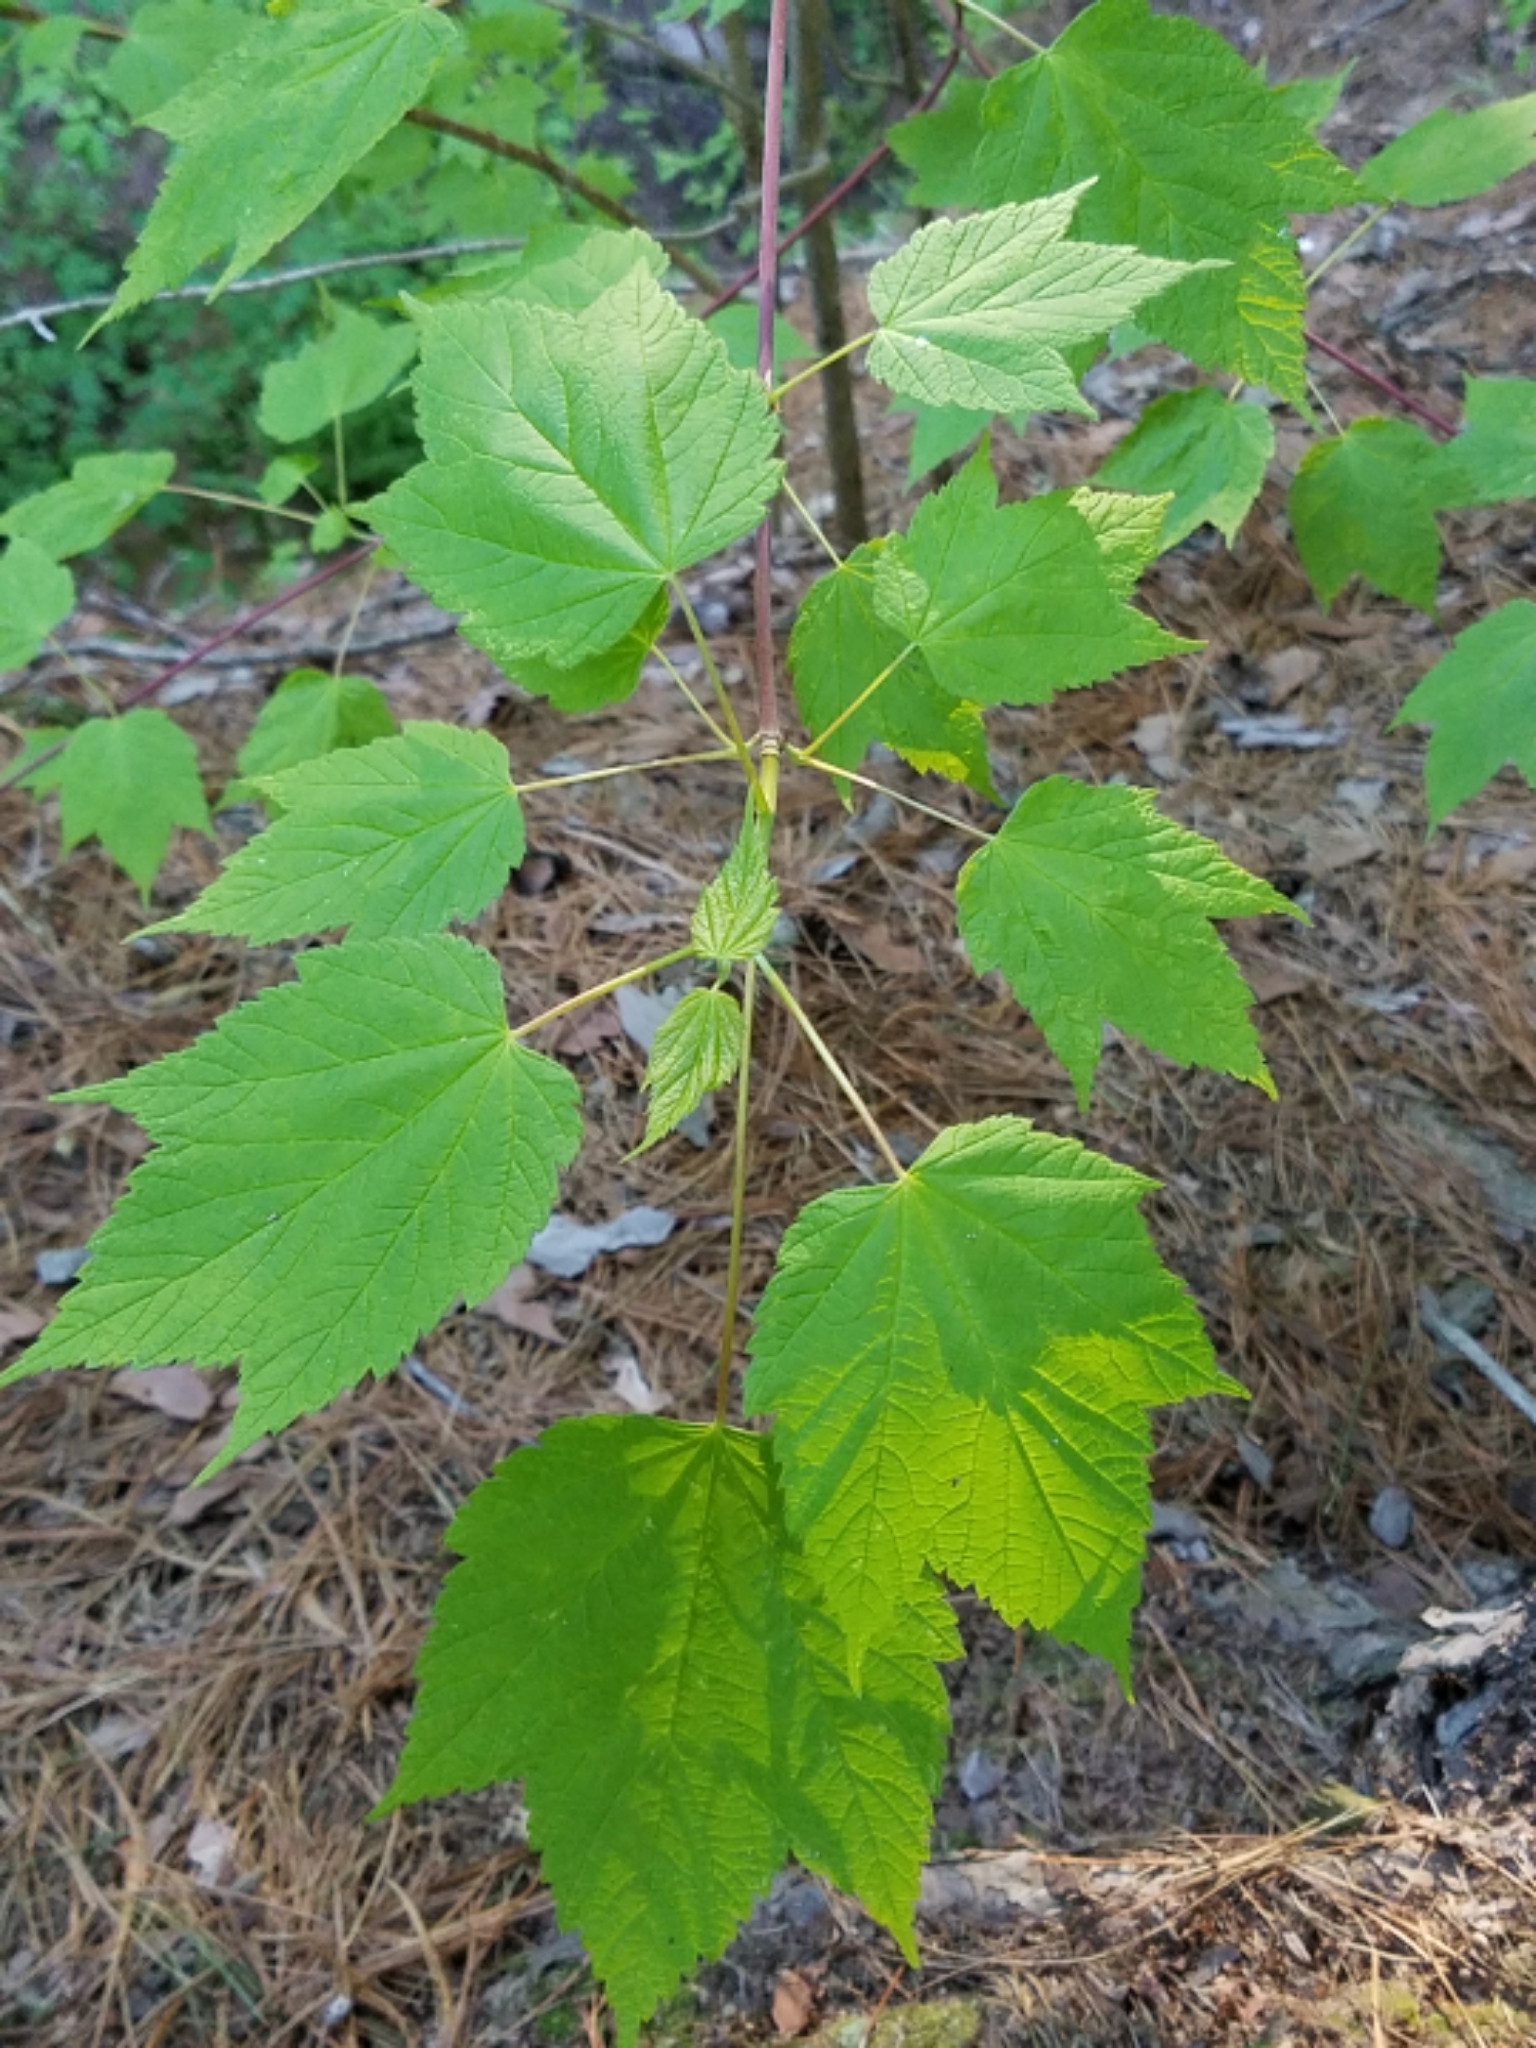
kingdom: Plantae
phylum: Tracheophyta
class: Magnoliopsida
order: Sapindales
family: Sapindaceae
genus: Acer
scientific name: Acer spicatum
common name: Mountain maple
